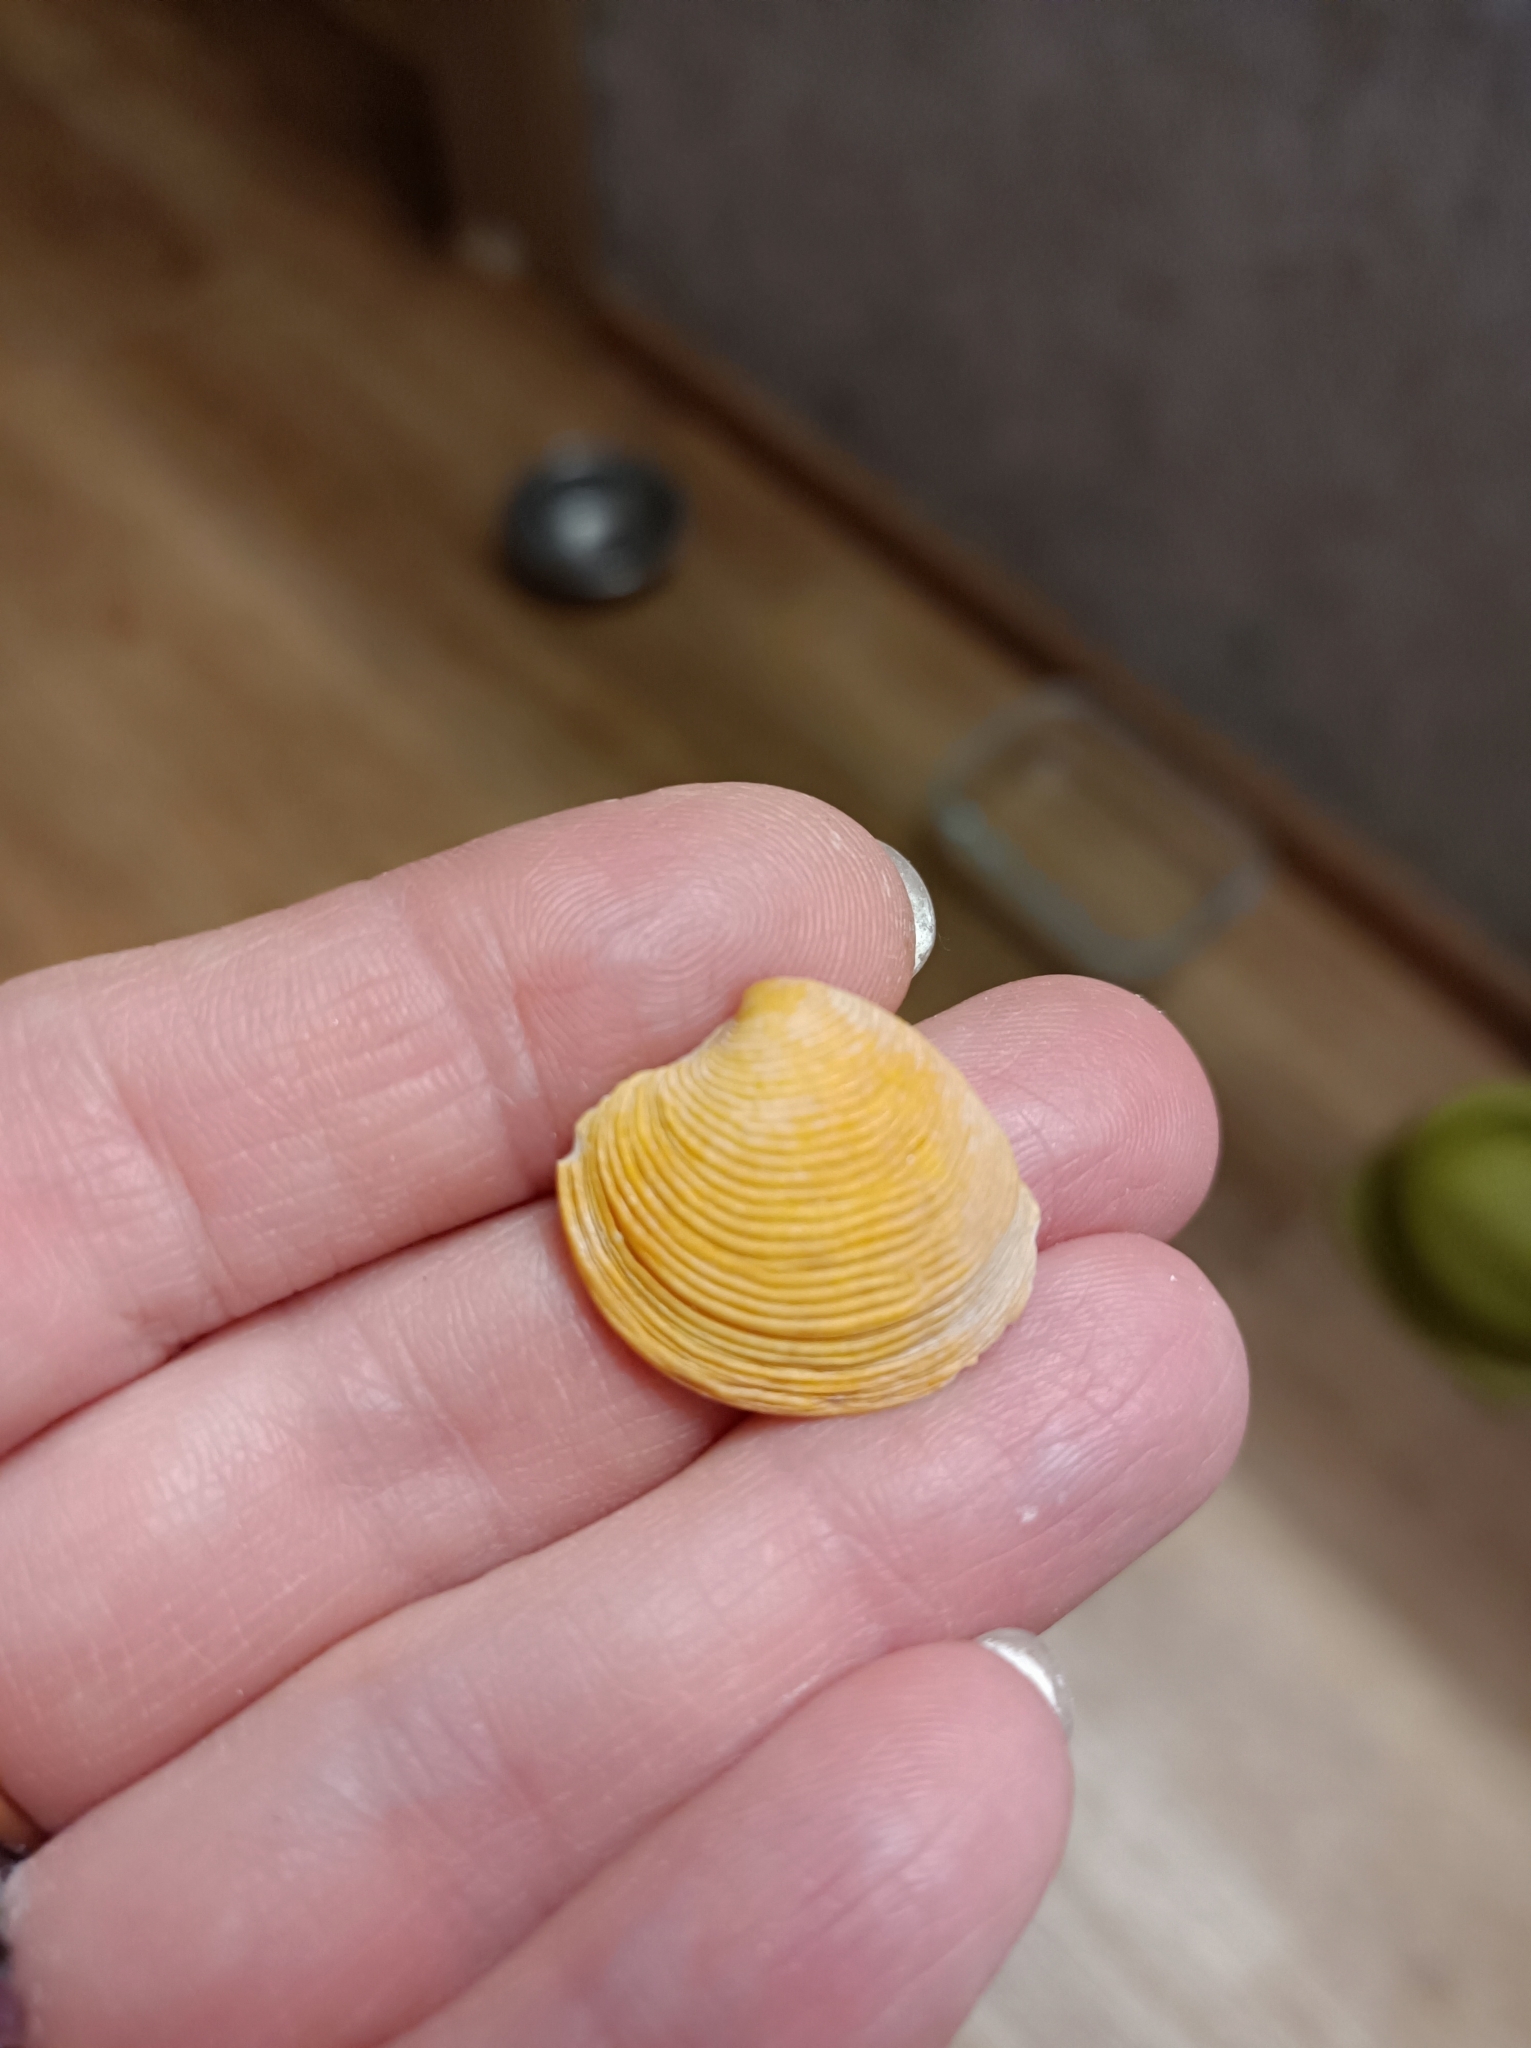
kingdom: Animalia
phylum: Mollusca
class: Bivalvia
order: Venerida
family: Veneridae
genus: Chamelea
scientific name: Chamelea gallina
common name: Chicken venus
